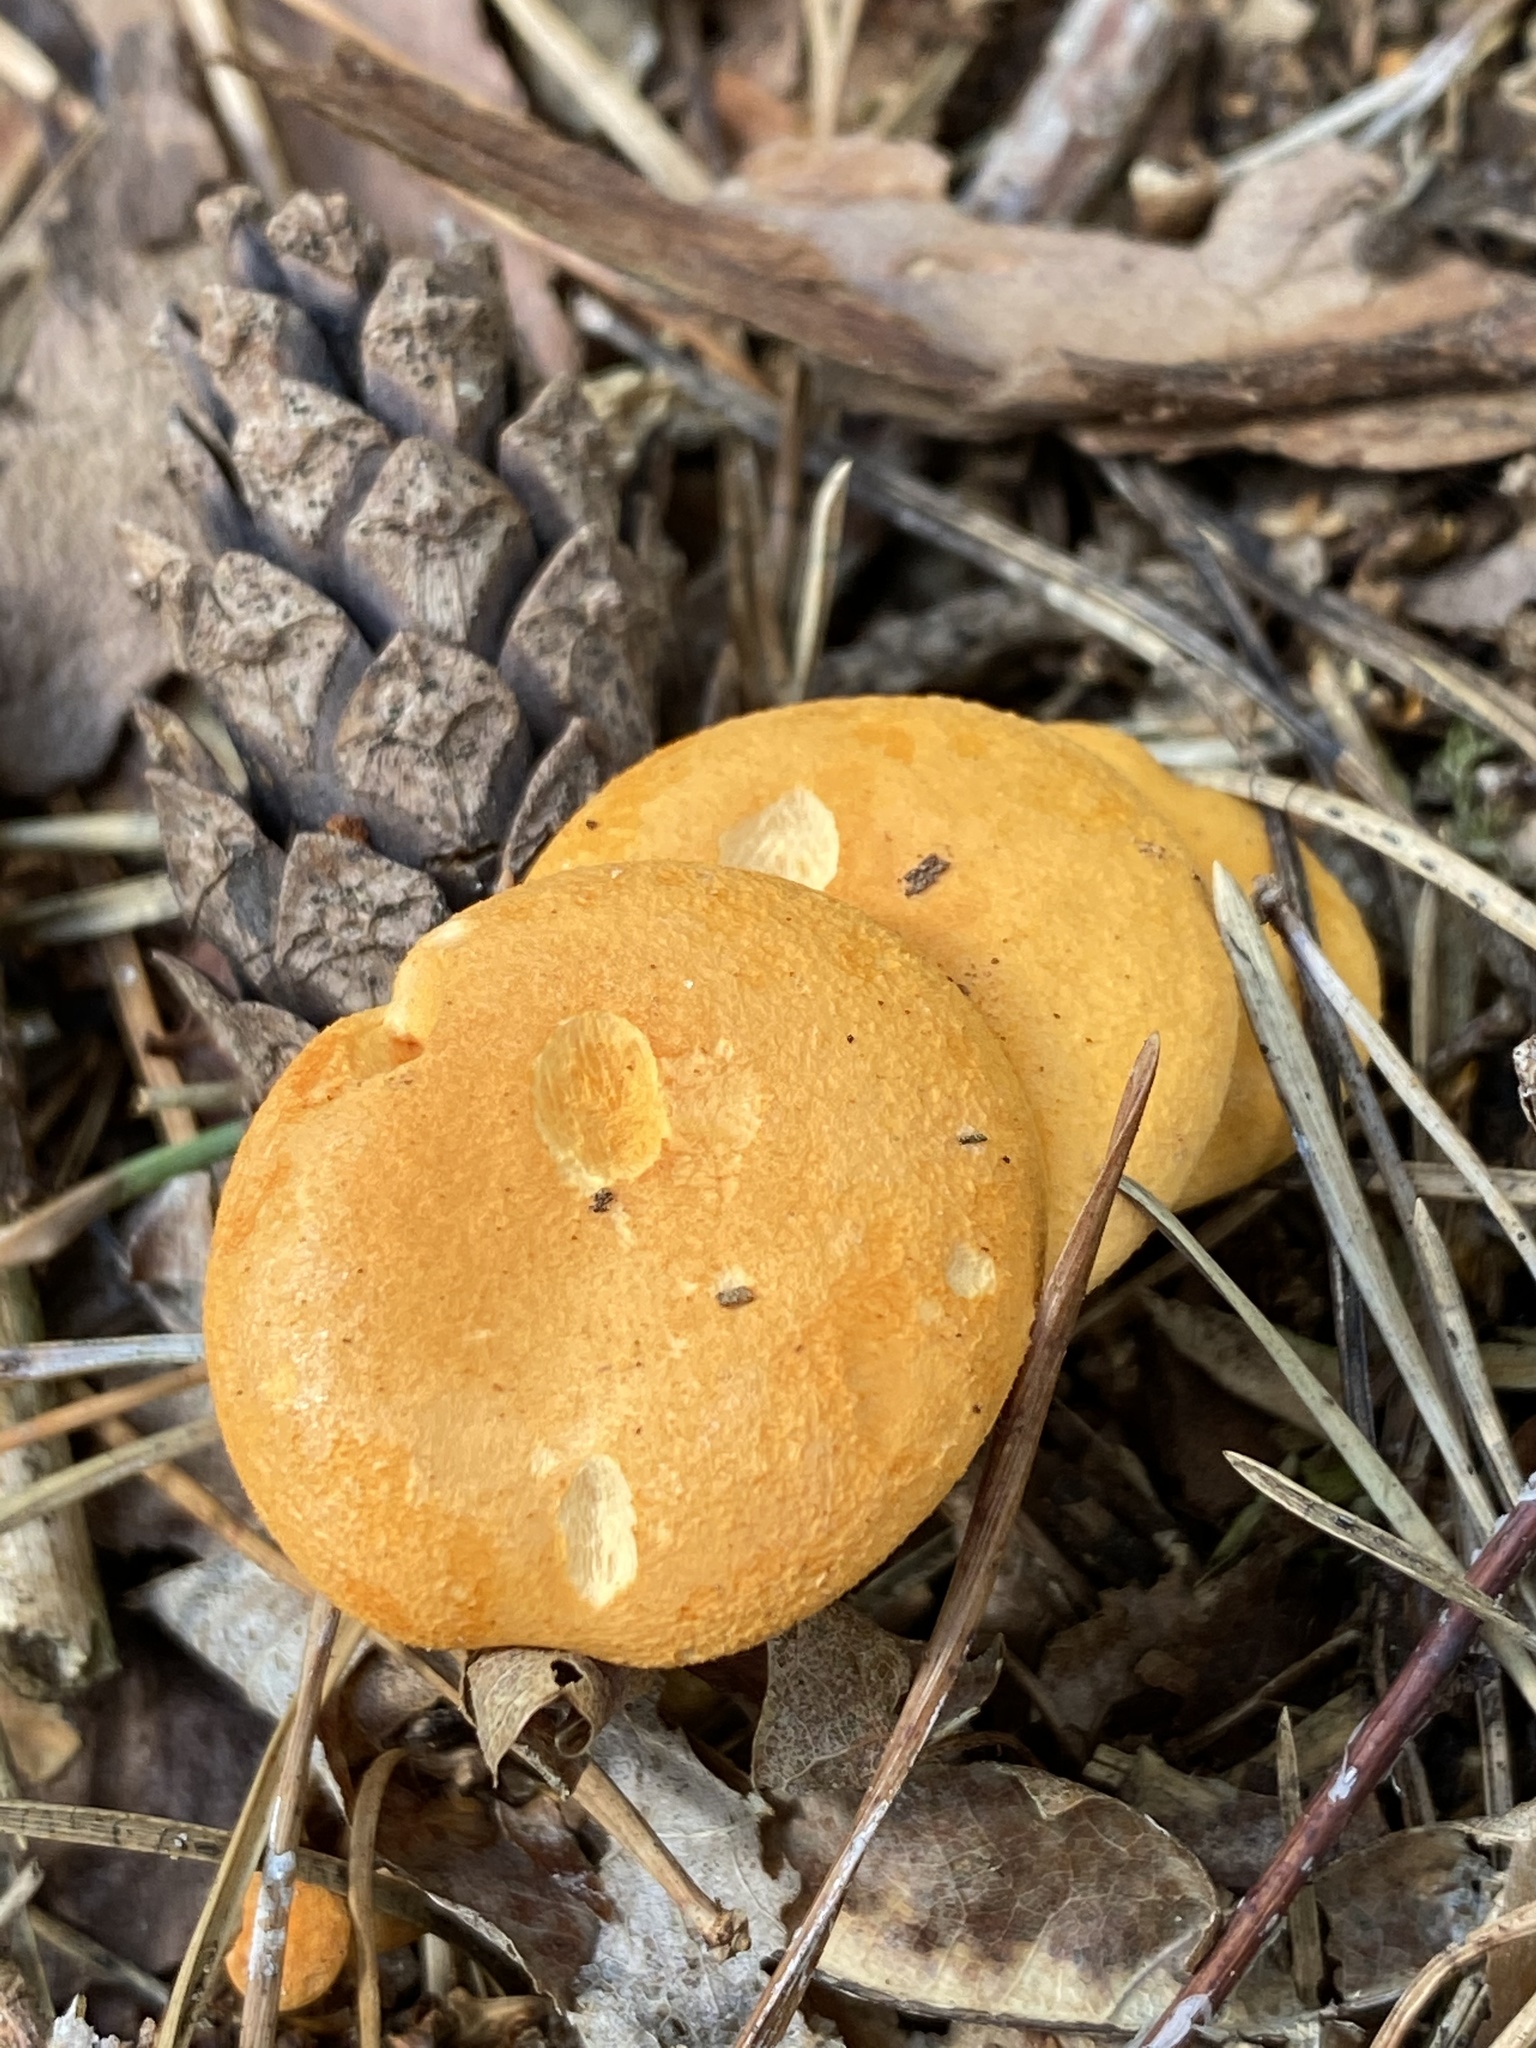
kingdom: Fungi
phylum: Basidiomycota
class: Agaricomycetes
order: Boletales
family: Hygrophoropsidaceae
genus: Hygrophoropsis
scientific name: Hygrophoropsis aurantiaca
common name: False chanterelle
